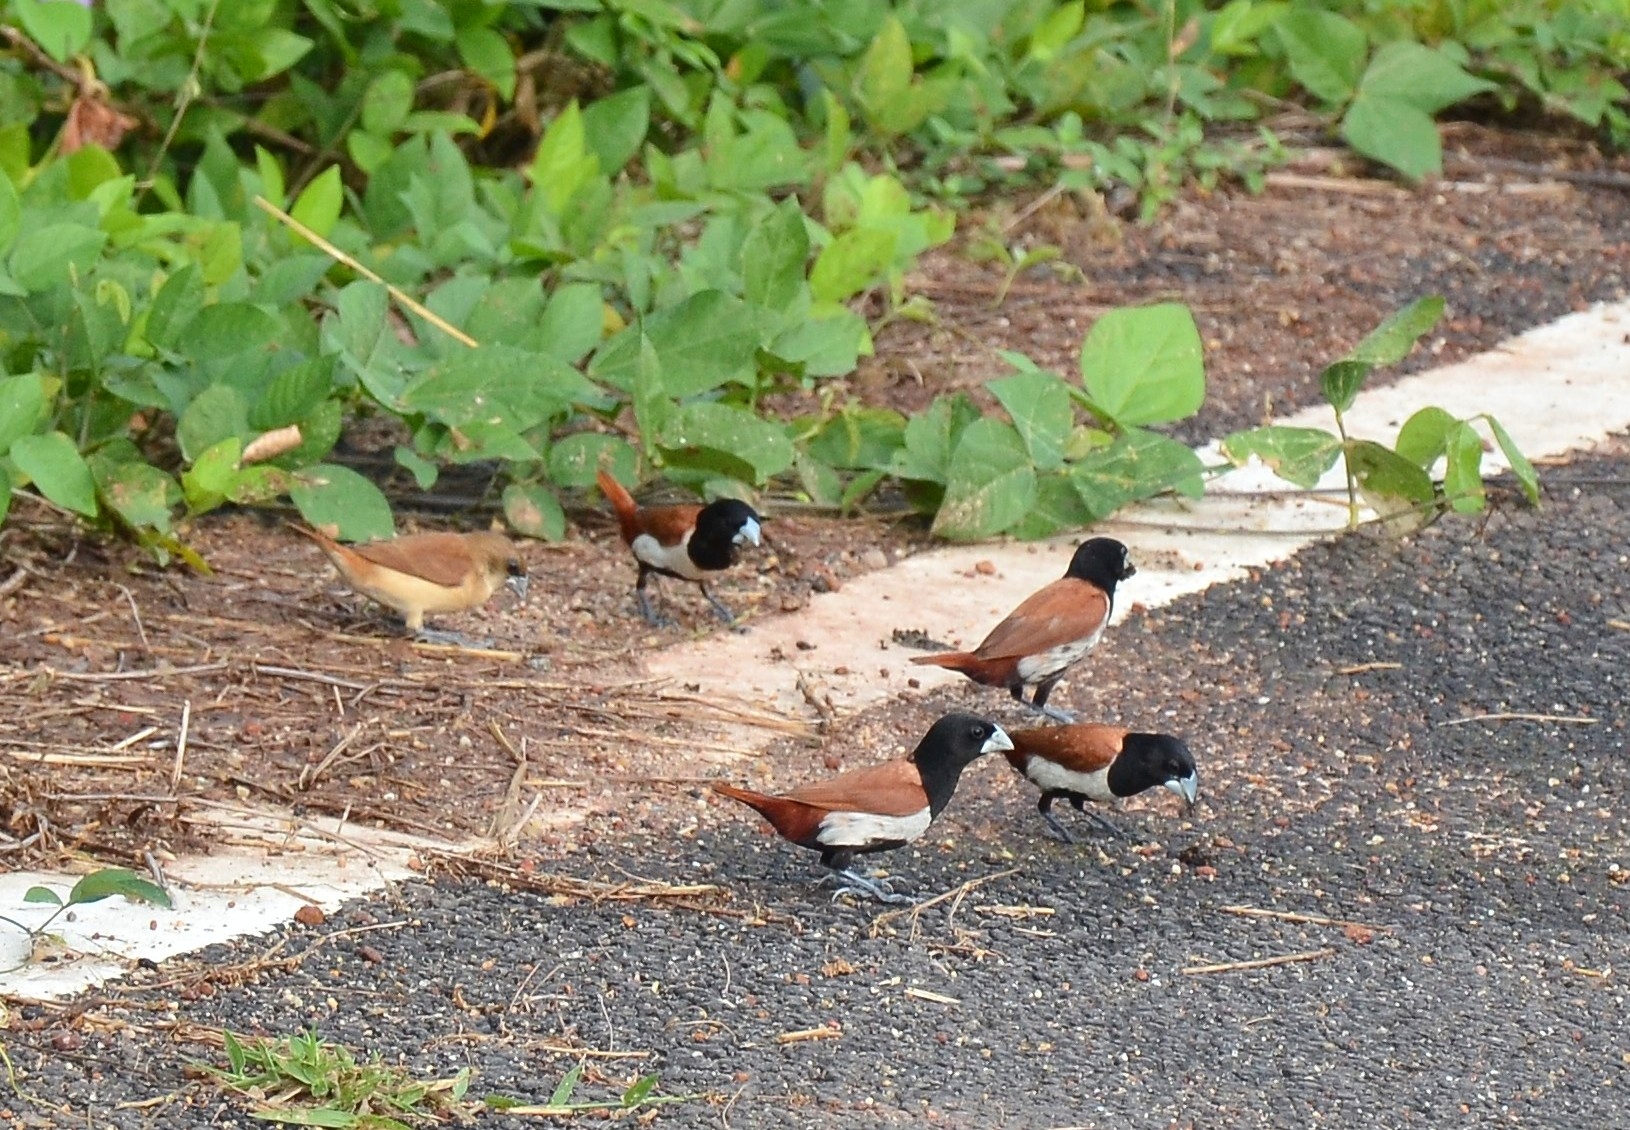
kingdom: Animalia
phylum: Chordata
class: Aves
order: Passeriformes
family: Estrildidae
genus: Lonchura
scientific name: Lonchura malacca
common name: Tricolored munia
